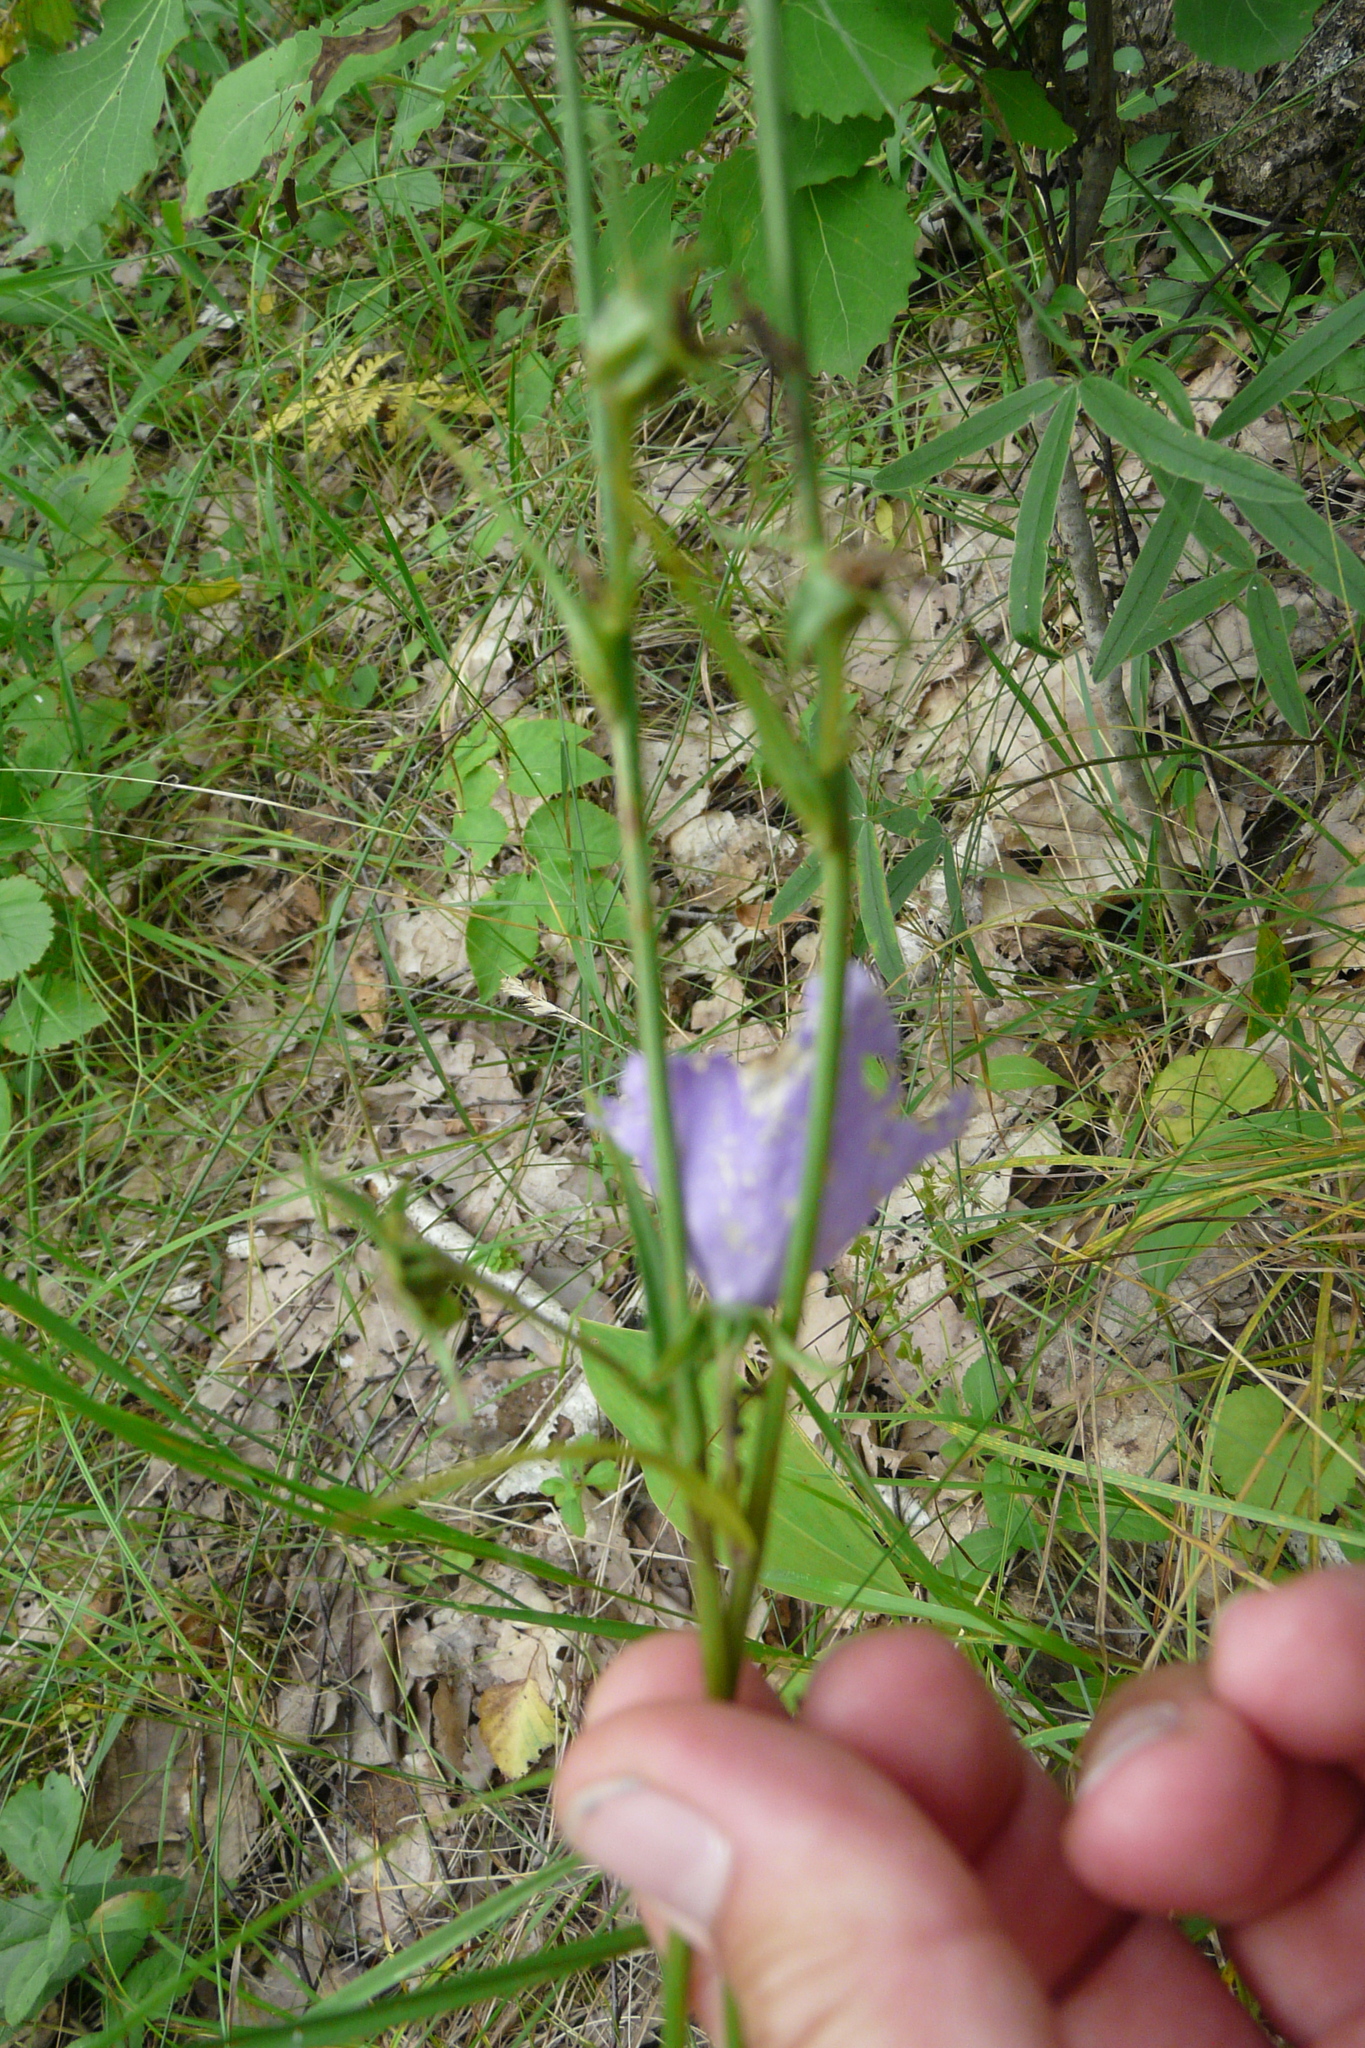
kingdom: Plantae
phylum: Tracheophyta
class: Magnoliopsida
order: Asterales
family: Campanulaceae
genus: Campanula
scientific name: Campanula persicifolia
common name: Peach-leaved bellflower
